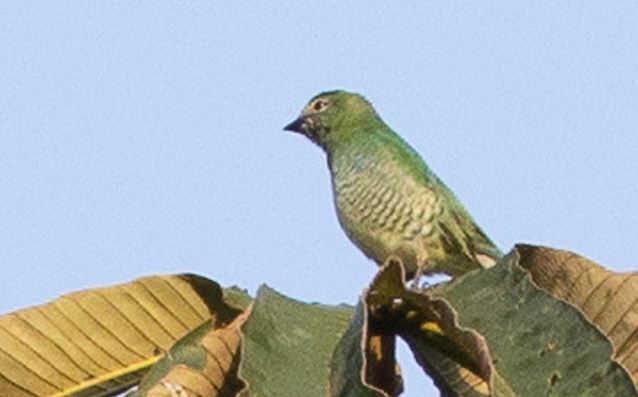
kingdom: Animalia
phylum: Chordata
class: Aves
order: Passeriformes
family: Thraupidae
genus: Tersina
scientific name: Tersina viridis
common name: Swallow tanager
